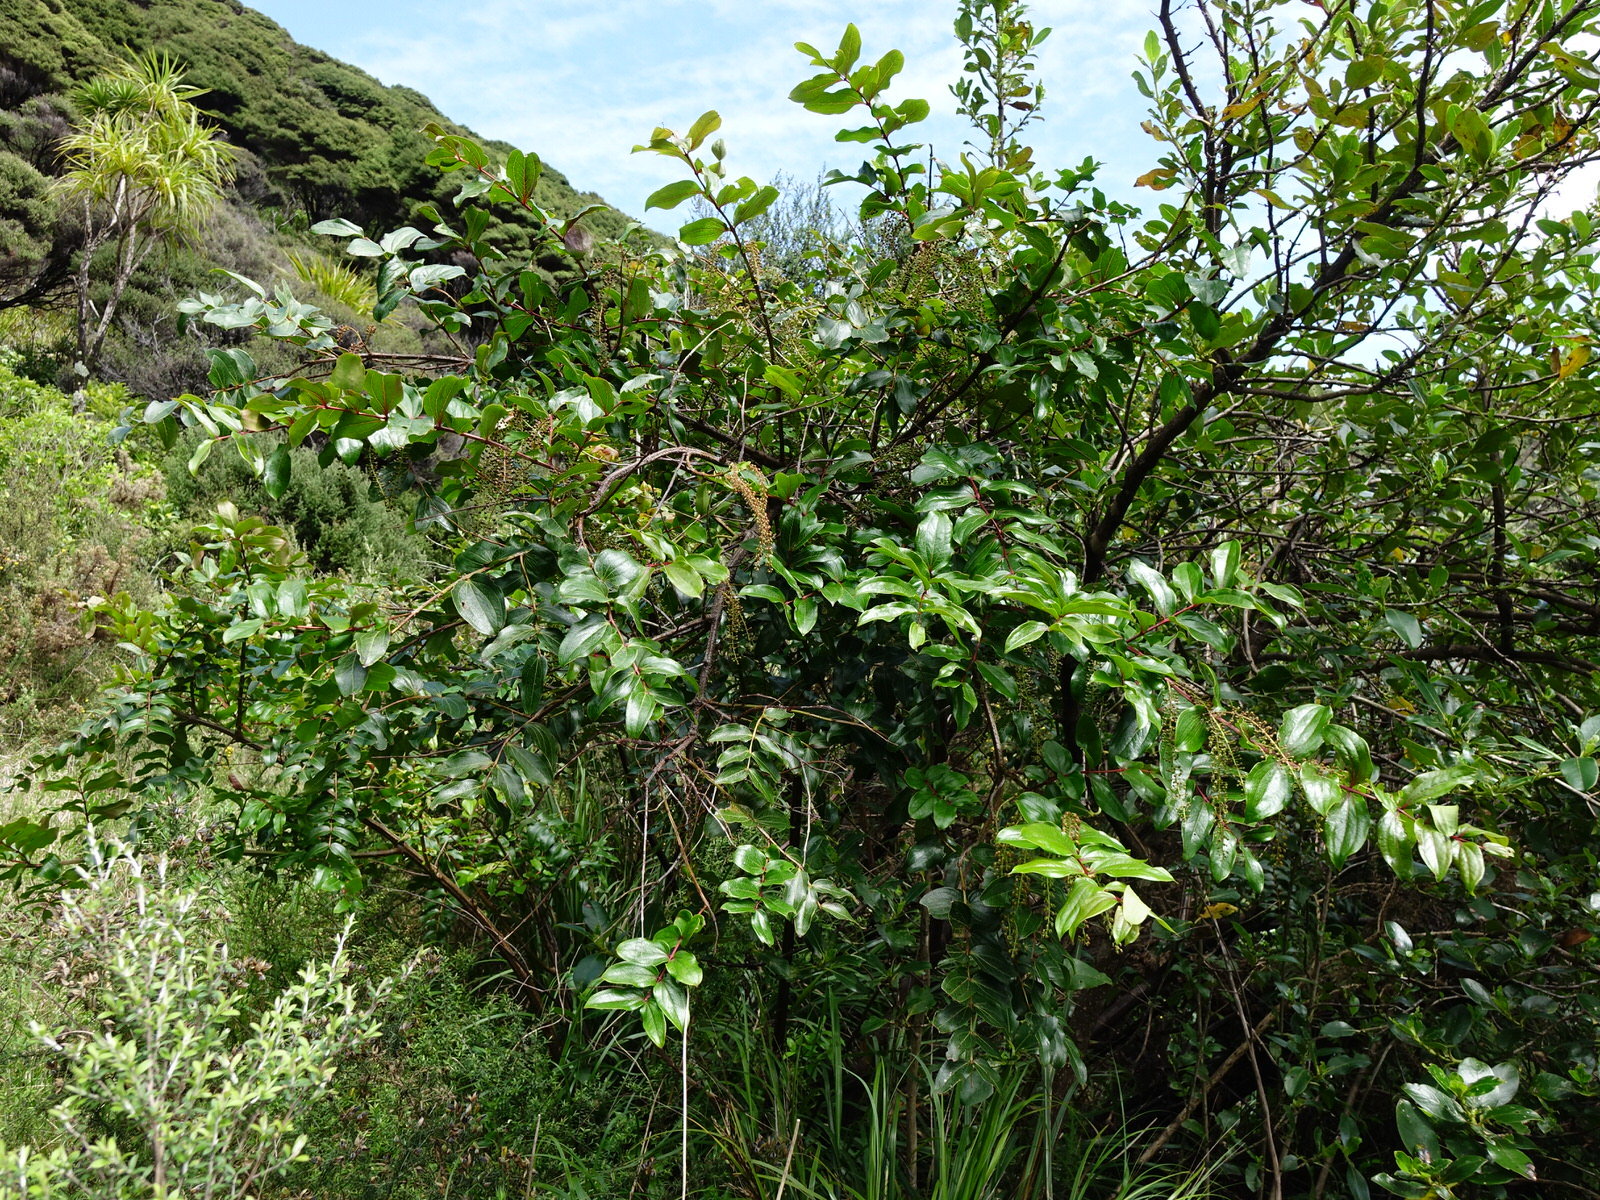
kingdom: Plantae
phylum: Tracheophyta
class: Magnoliopsida
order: Cucurbitales
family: Coriariaceae
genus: Coriaria
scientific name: Coriaria arborea
